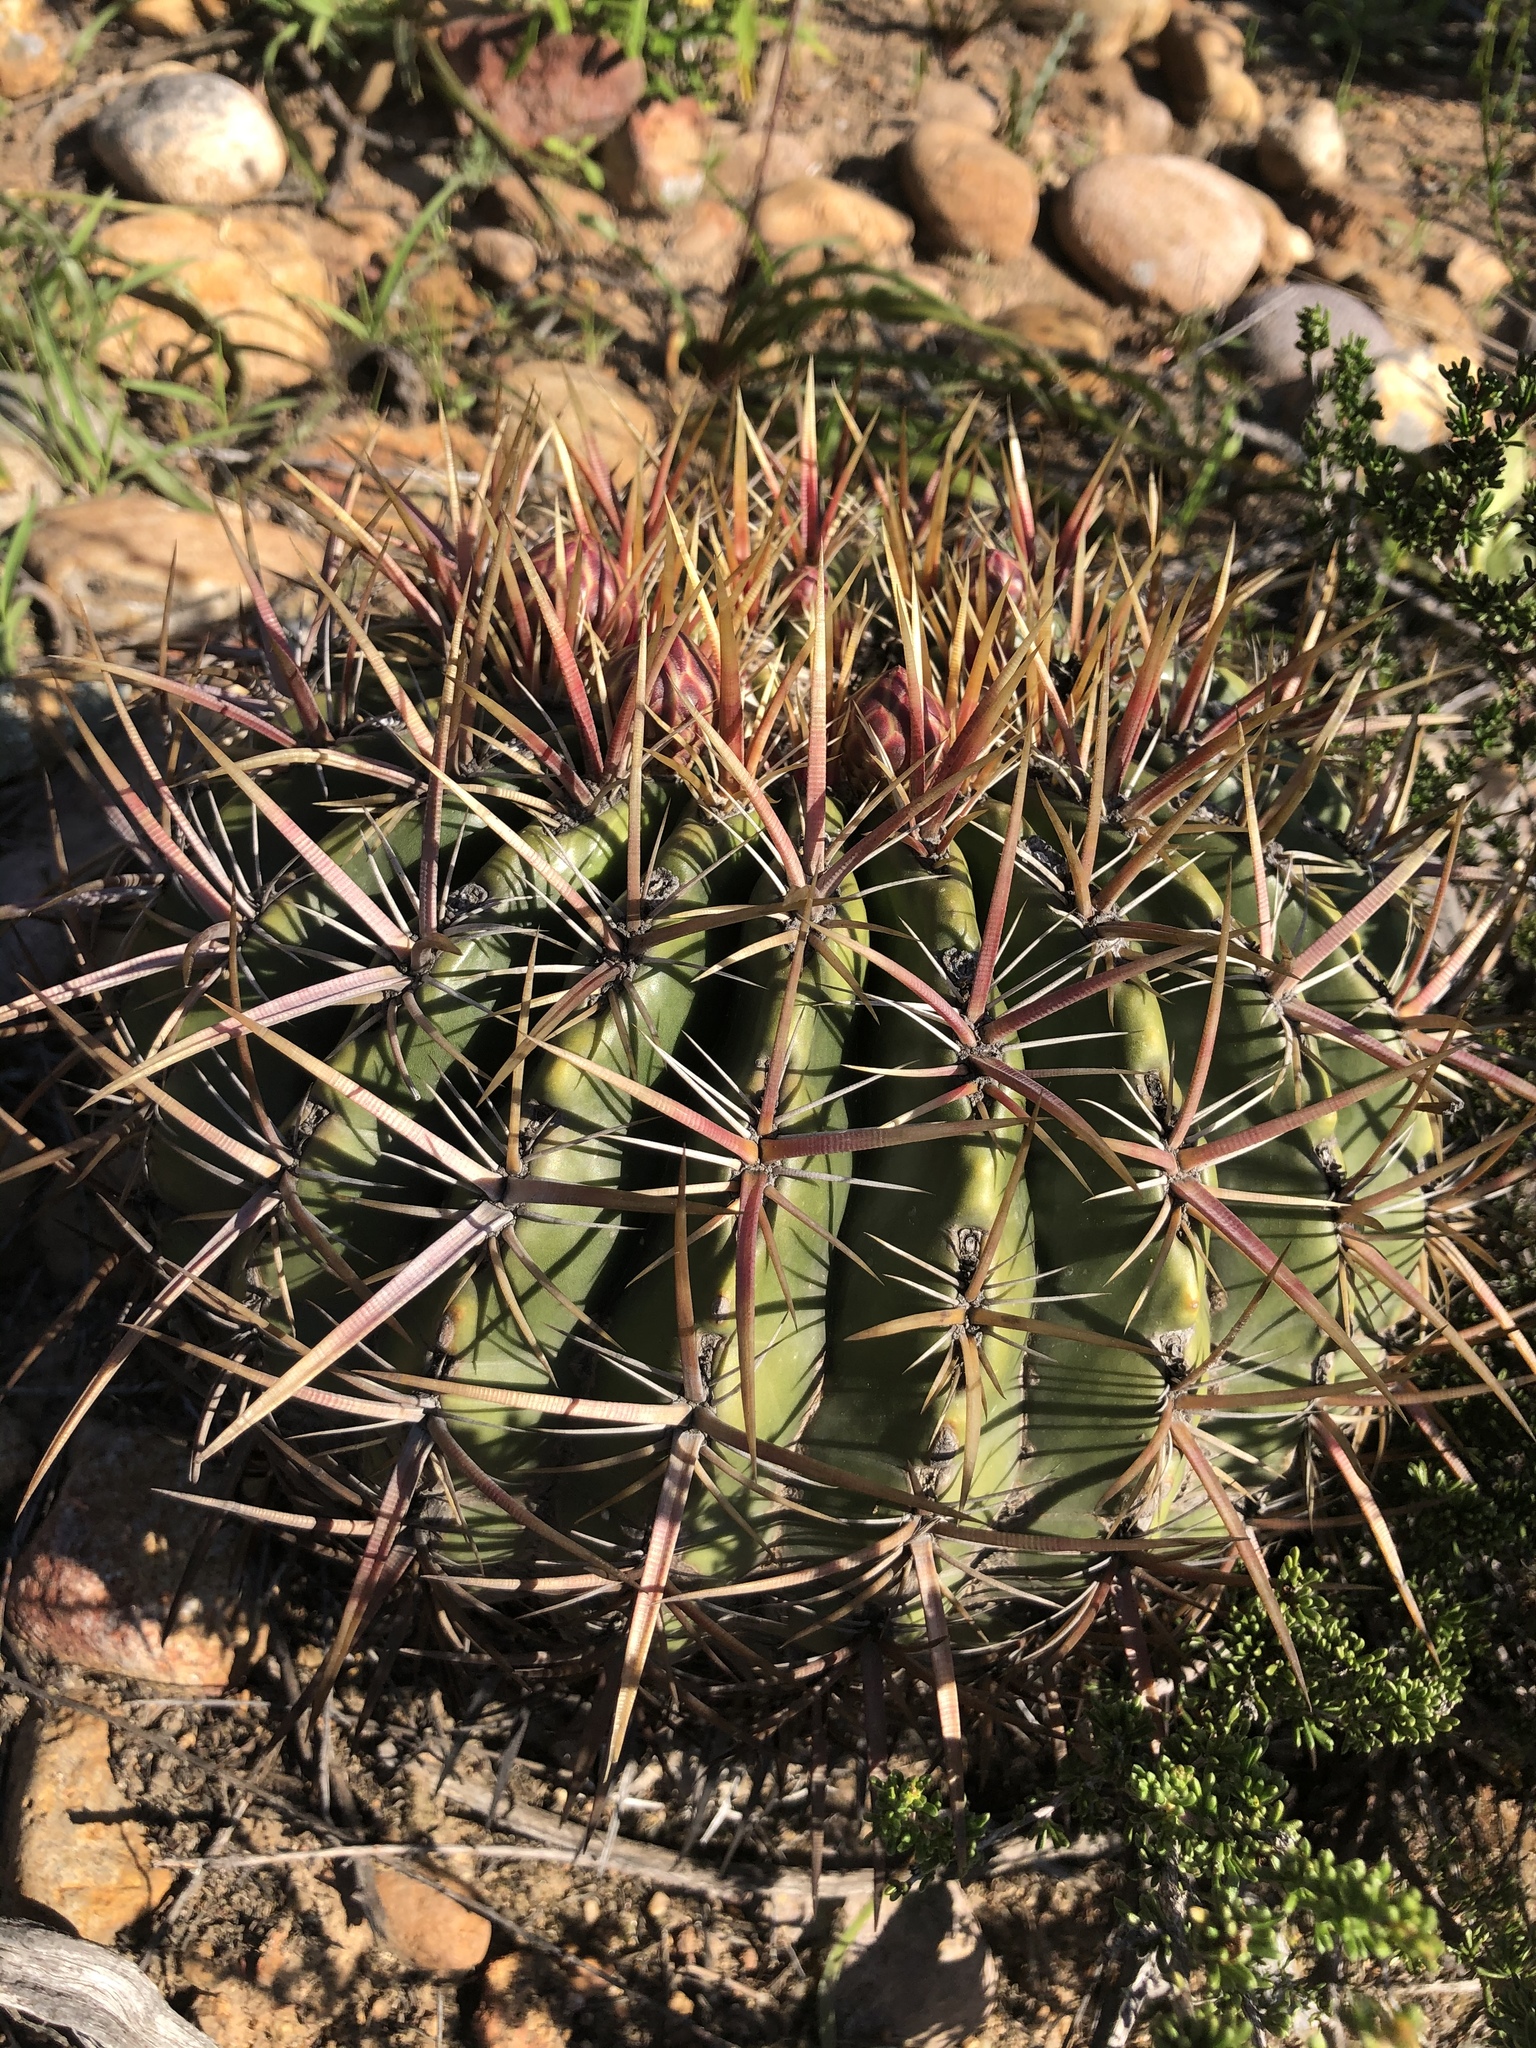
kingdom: Plantae
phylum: Tracheophyta
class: Magnoliopsida
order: Caryophyllales
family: Cactaceae
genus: Ferocactus
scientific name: Ferocactus viridescens
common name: San diego barrel cactus
